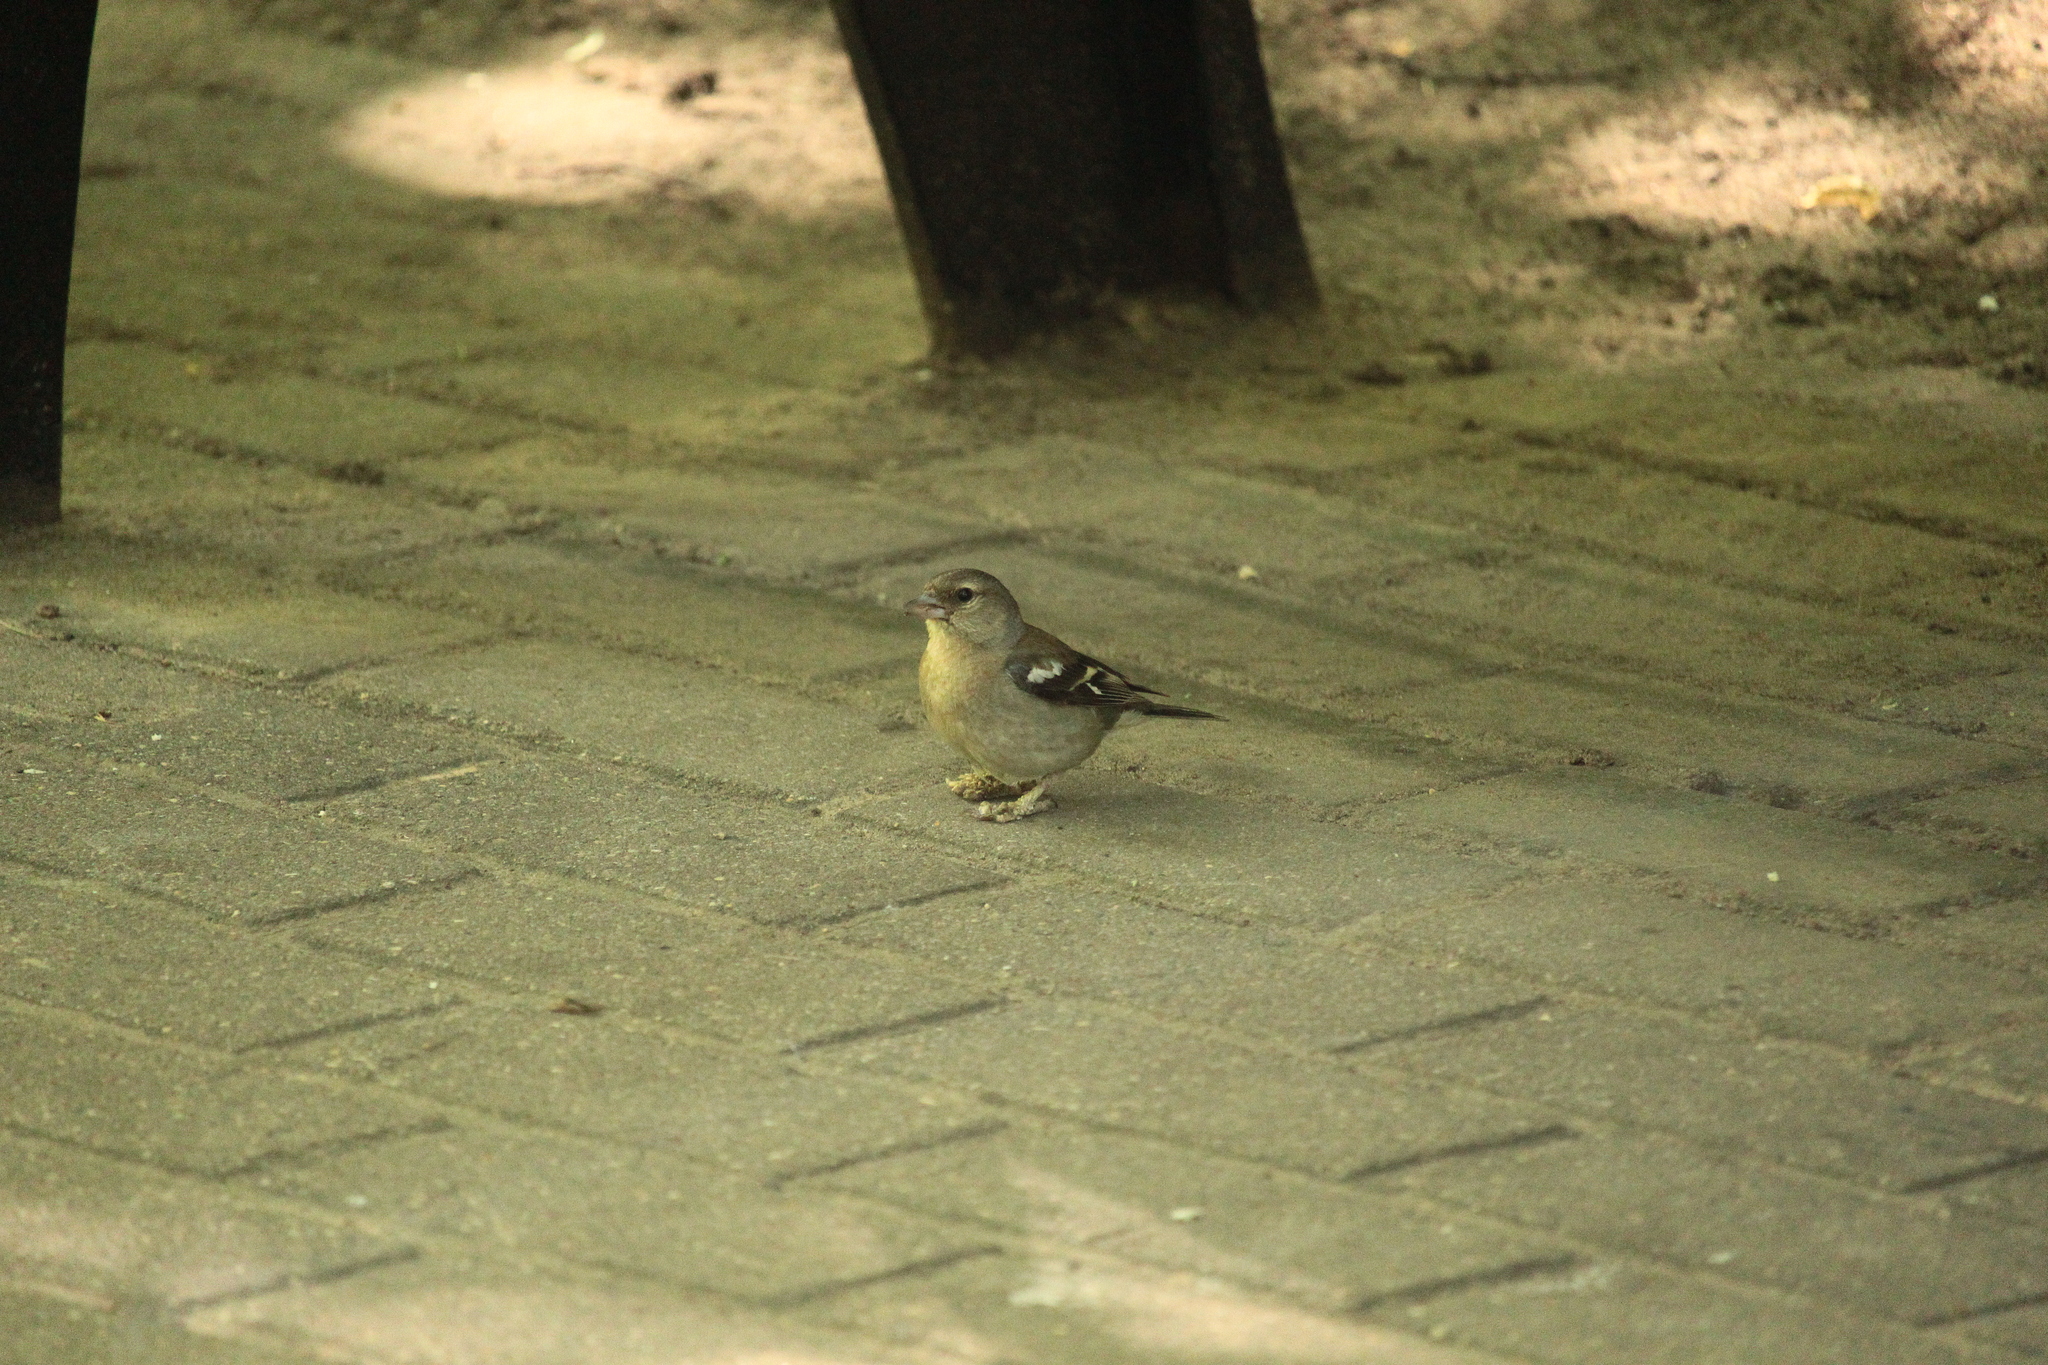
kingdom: Animalia
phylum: Chordata
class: Aves
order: Passeriformes
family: Fringillidae
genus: Fringilla
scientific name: Fringilla coelebs
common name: Common chaffinch
